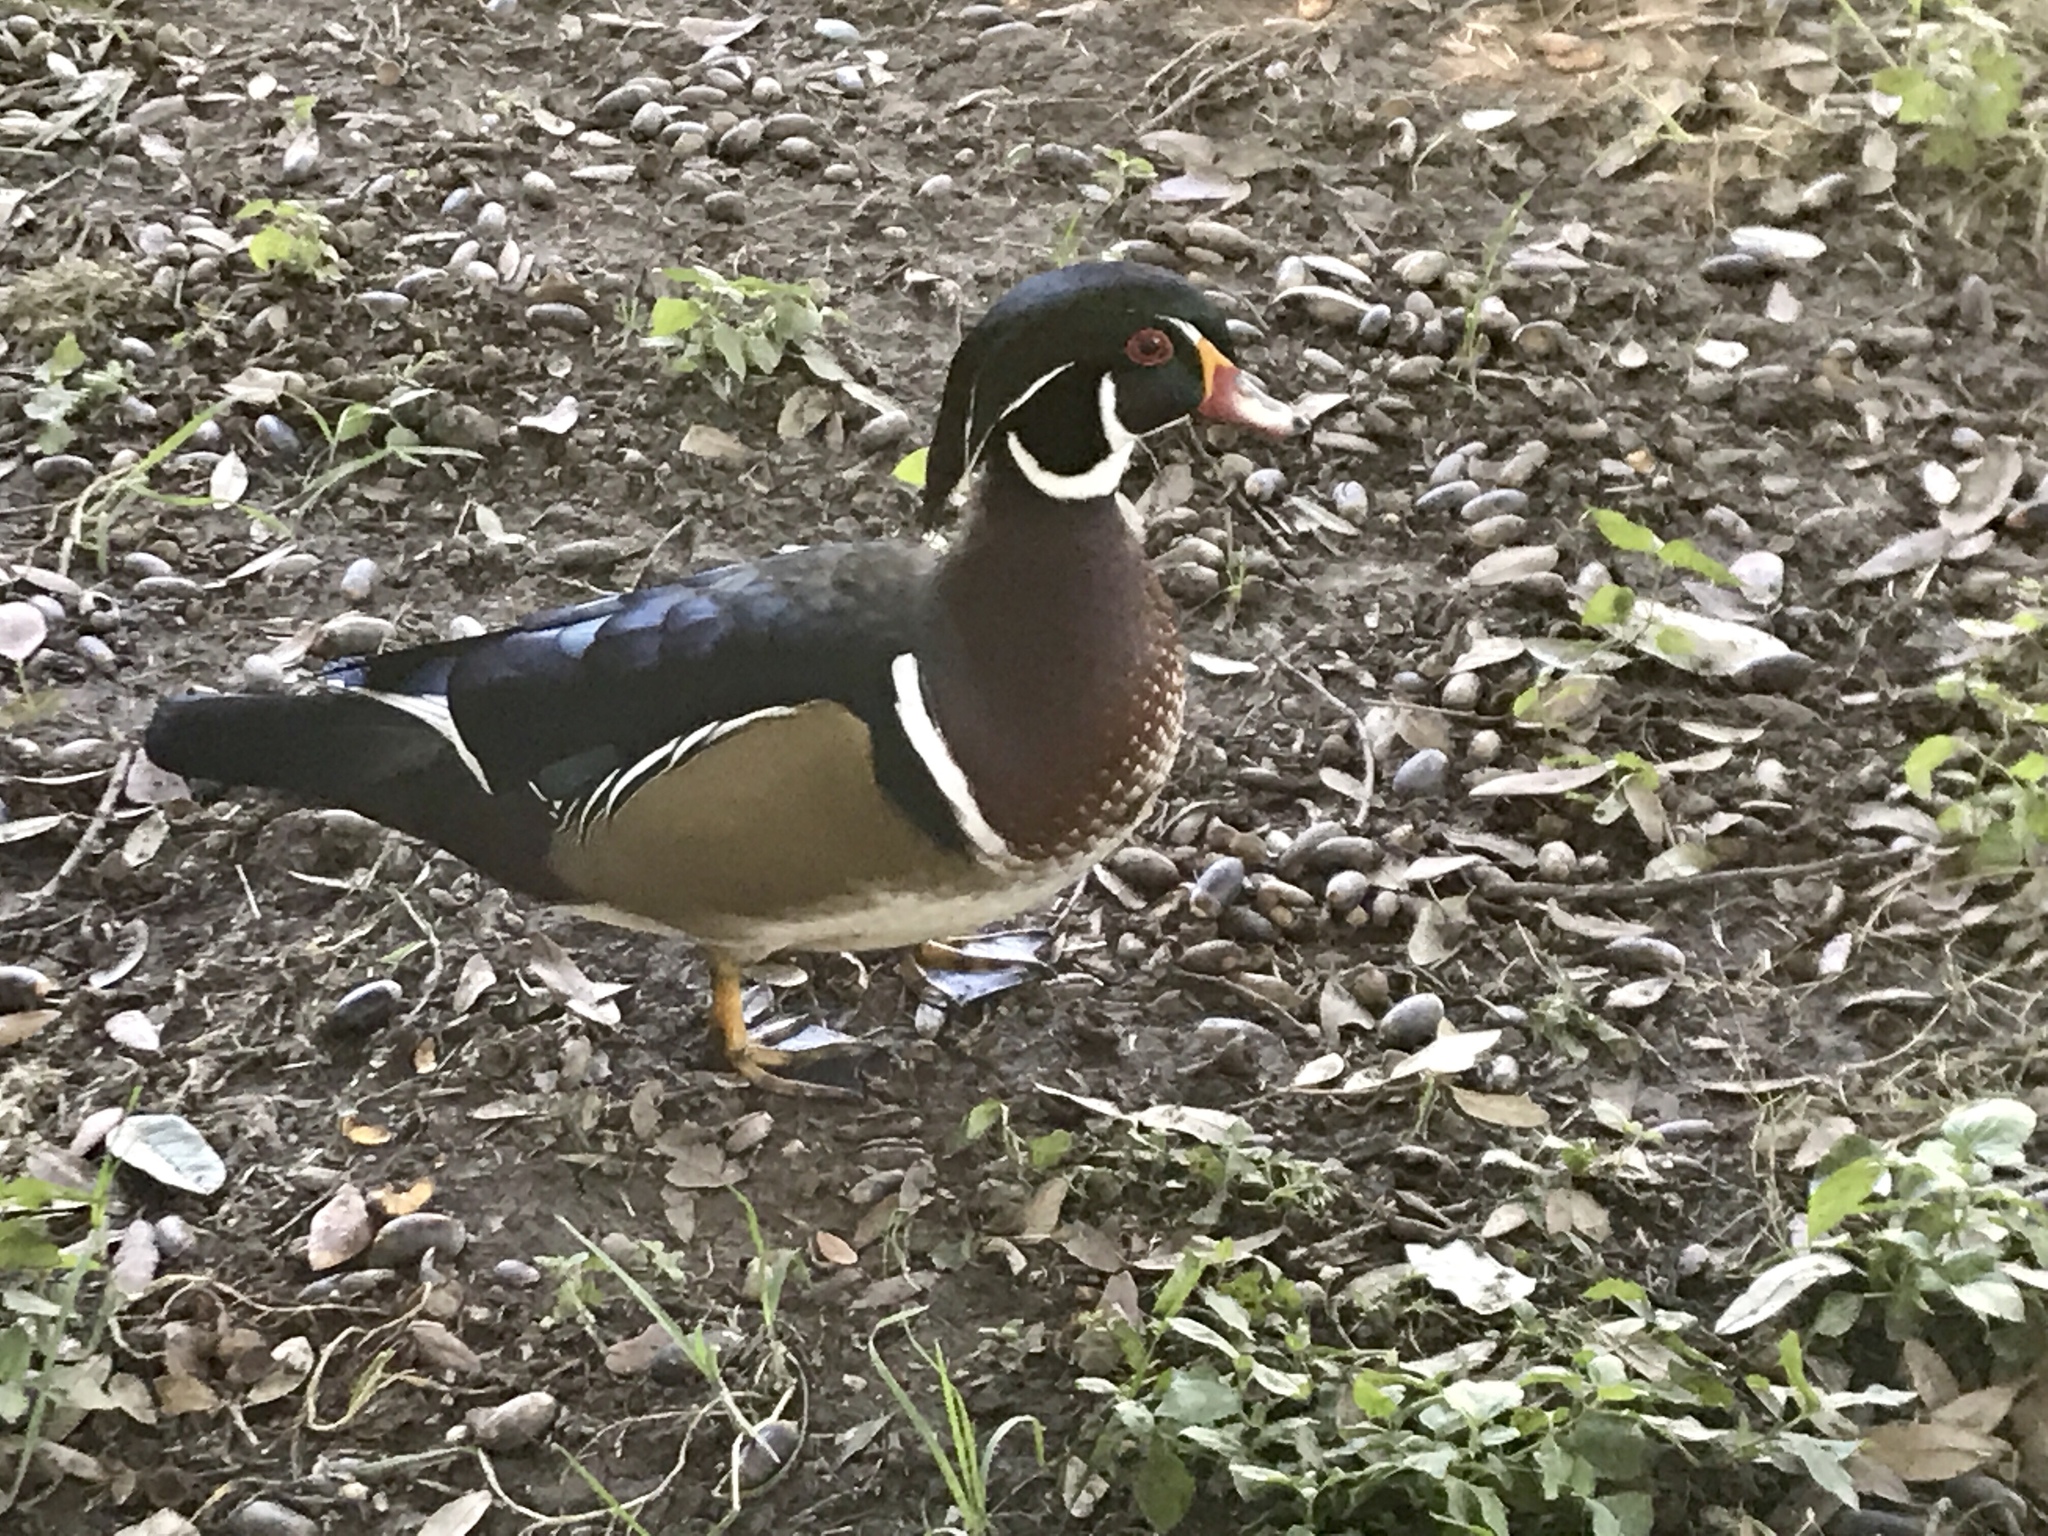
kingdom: Animalia
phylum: Chordata
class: Aves
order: Anseriformes
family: Anatidae
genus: Aix
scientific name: Aix sponsa
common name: Wood duck
